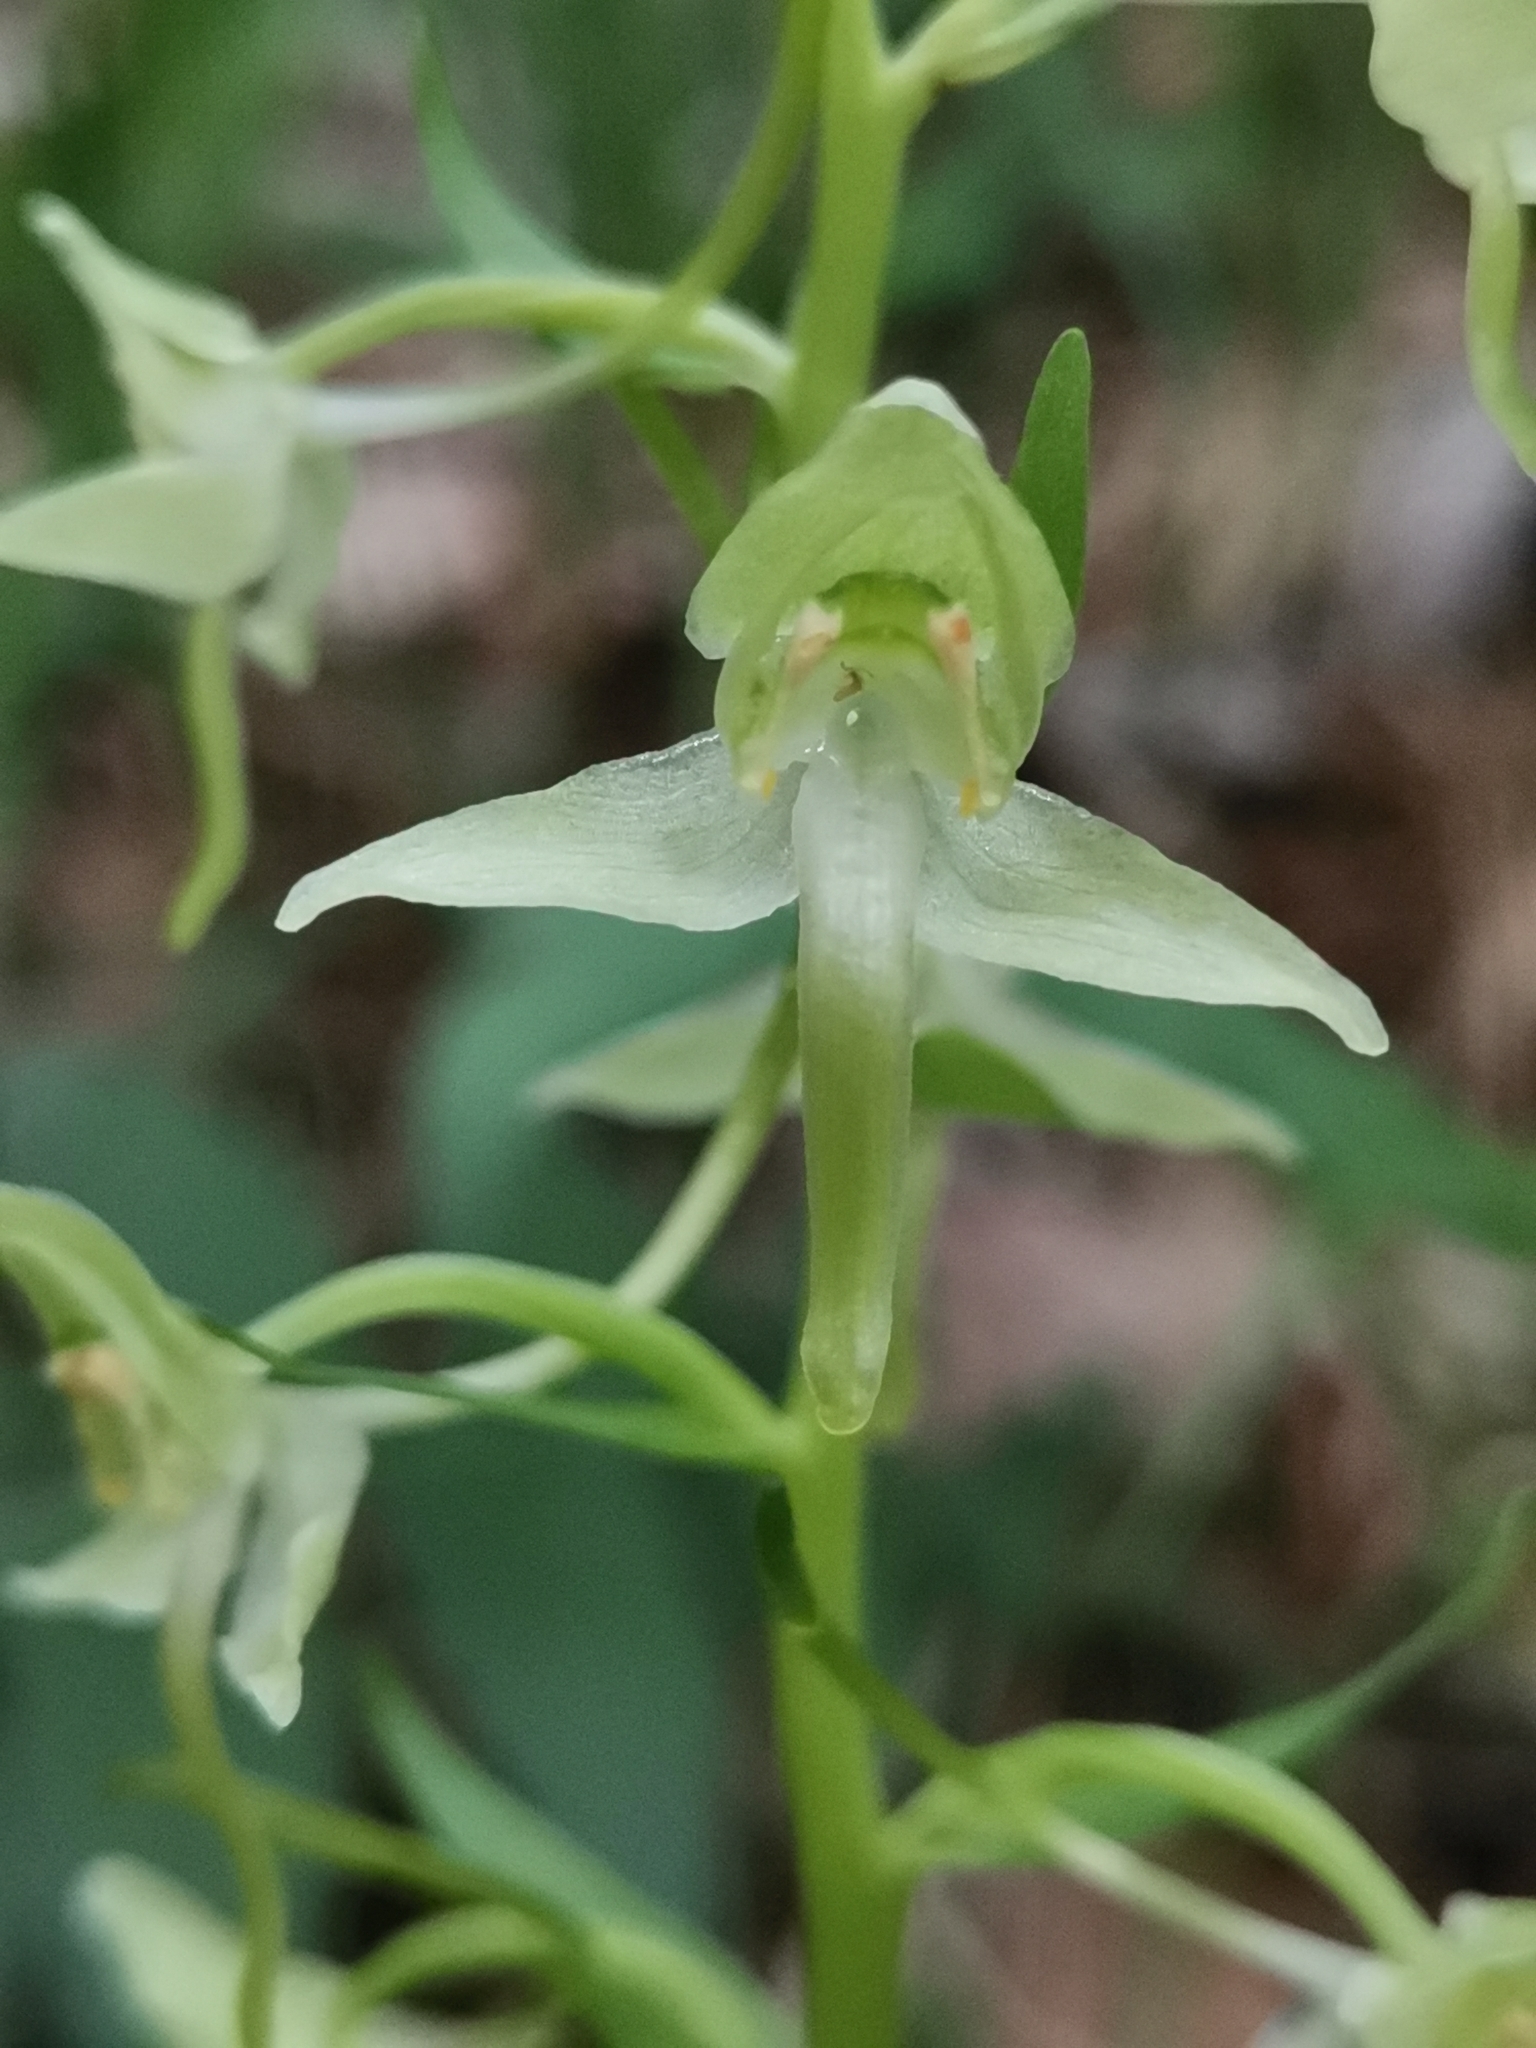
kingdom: Plantae
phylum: Tracheophyta
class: Liliopsida
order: Asparagales
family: Orchidaceae
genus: Platanthera
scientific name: Platanthera chlorantha
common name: Greater butterfly-orchid
